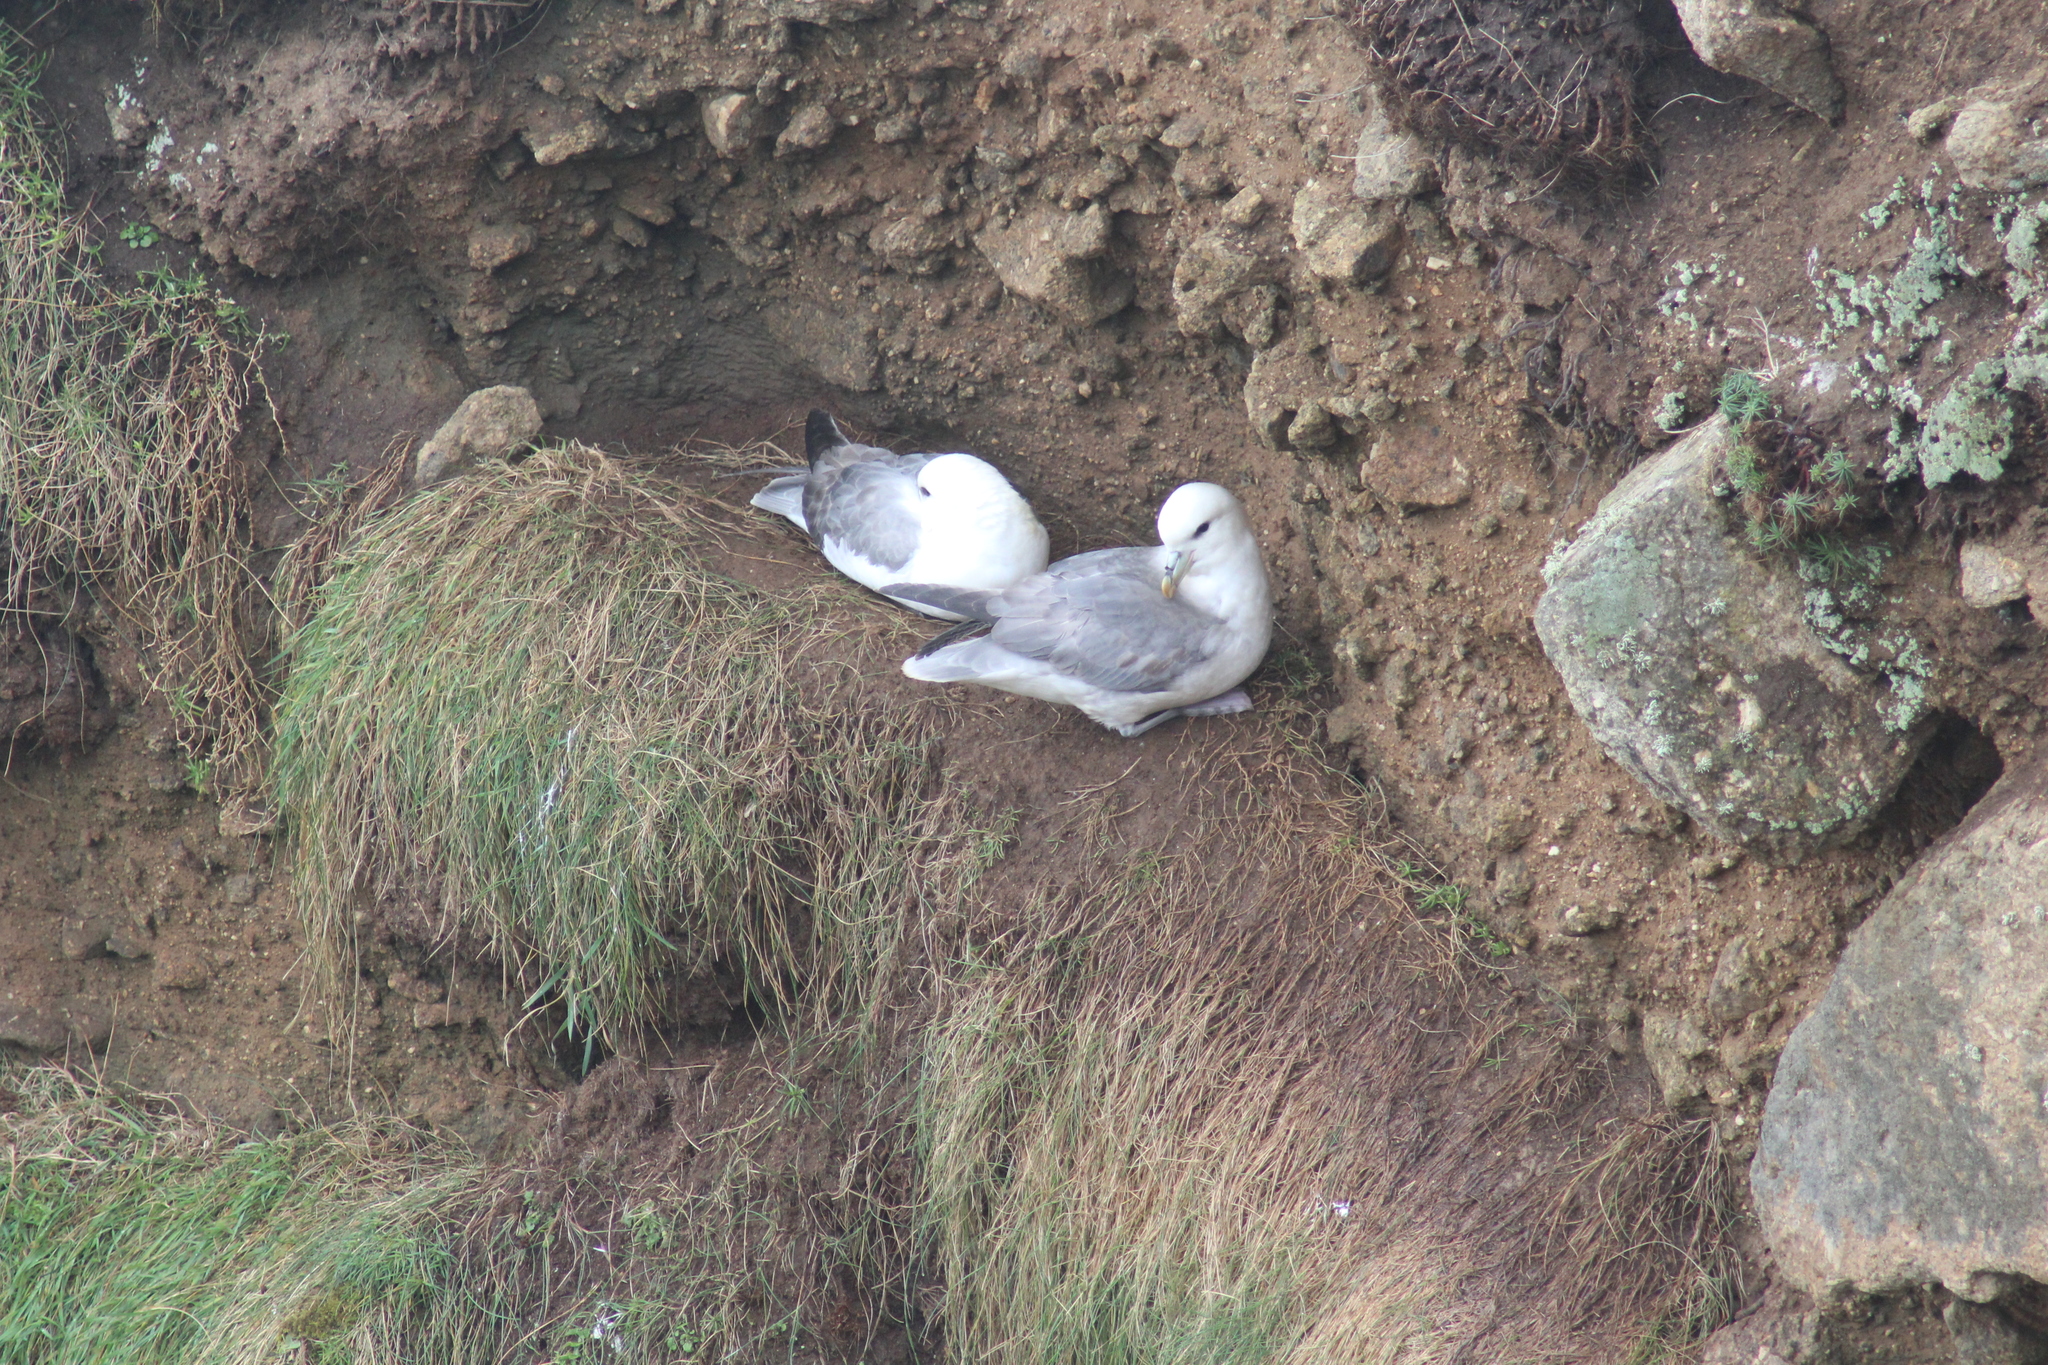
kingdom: Animalia
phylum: Chordata
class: Aves
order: Procellariiformes
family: Procellariidae
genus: Fulmarus
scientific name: Fulmarus glacialis
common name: Northern fulmar
